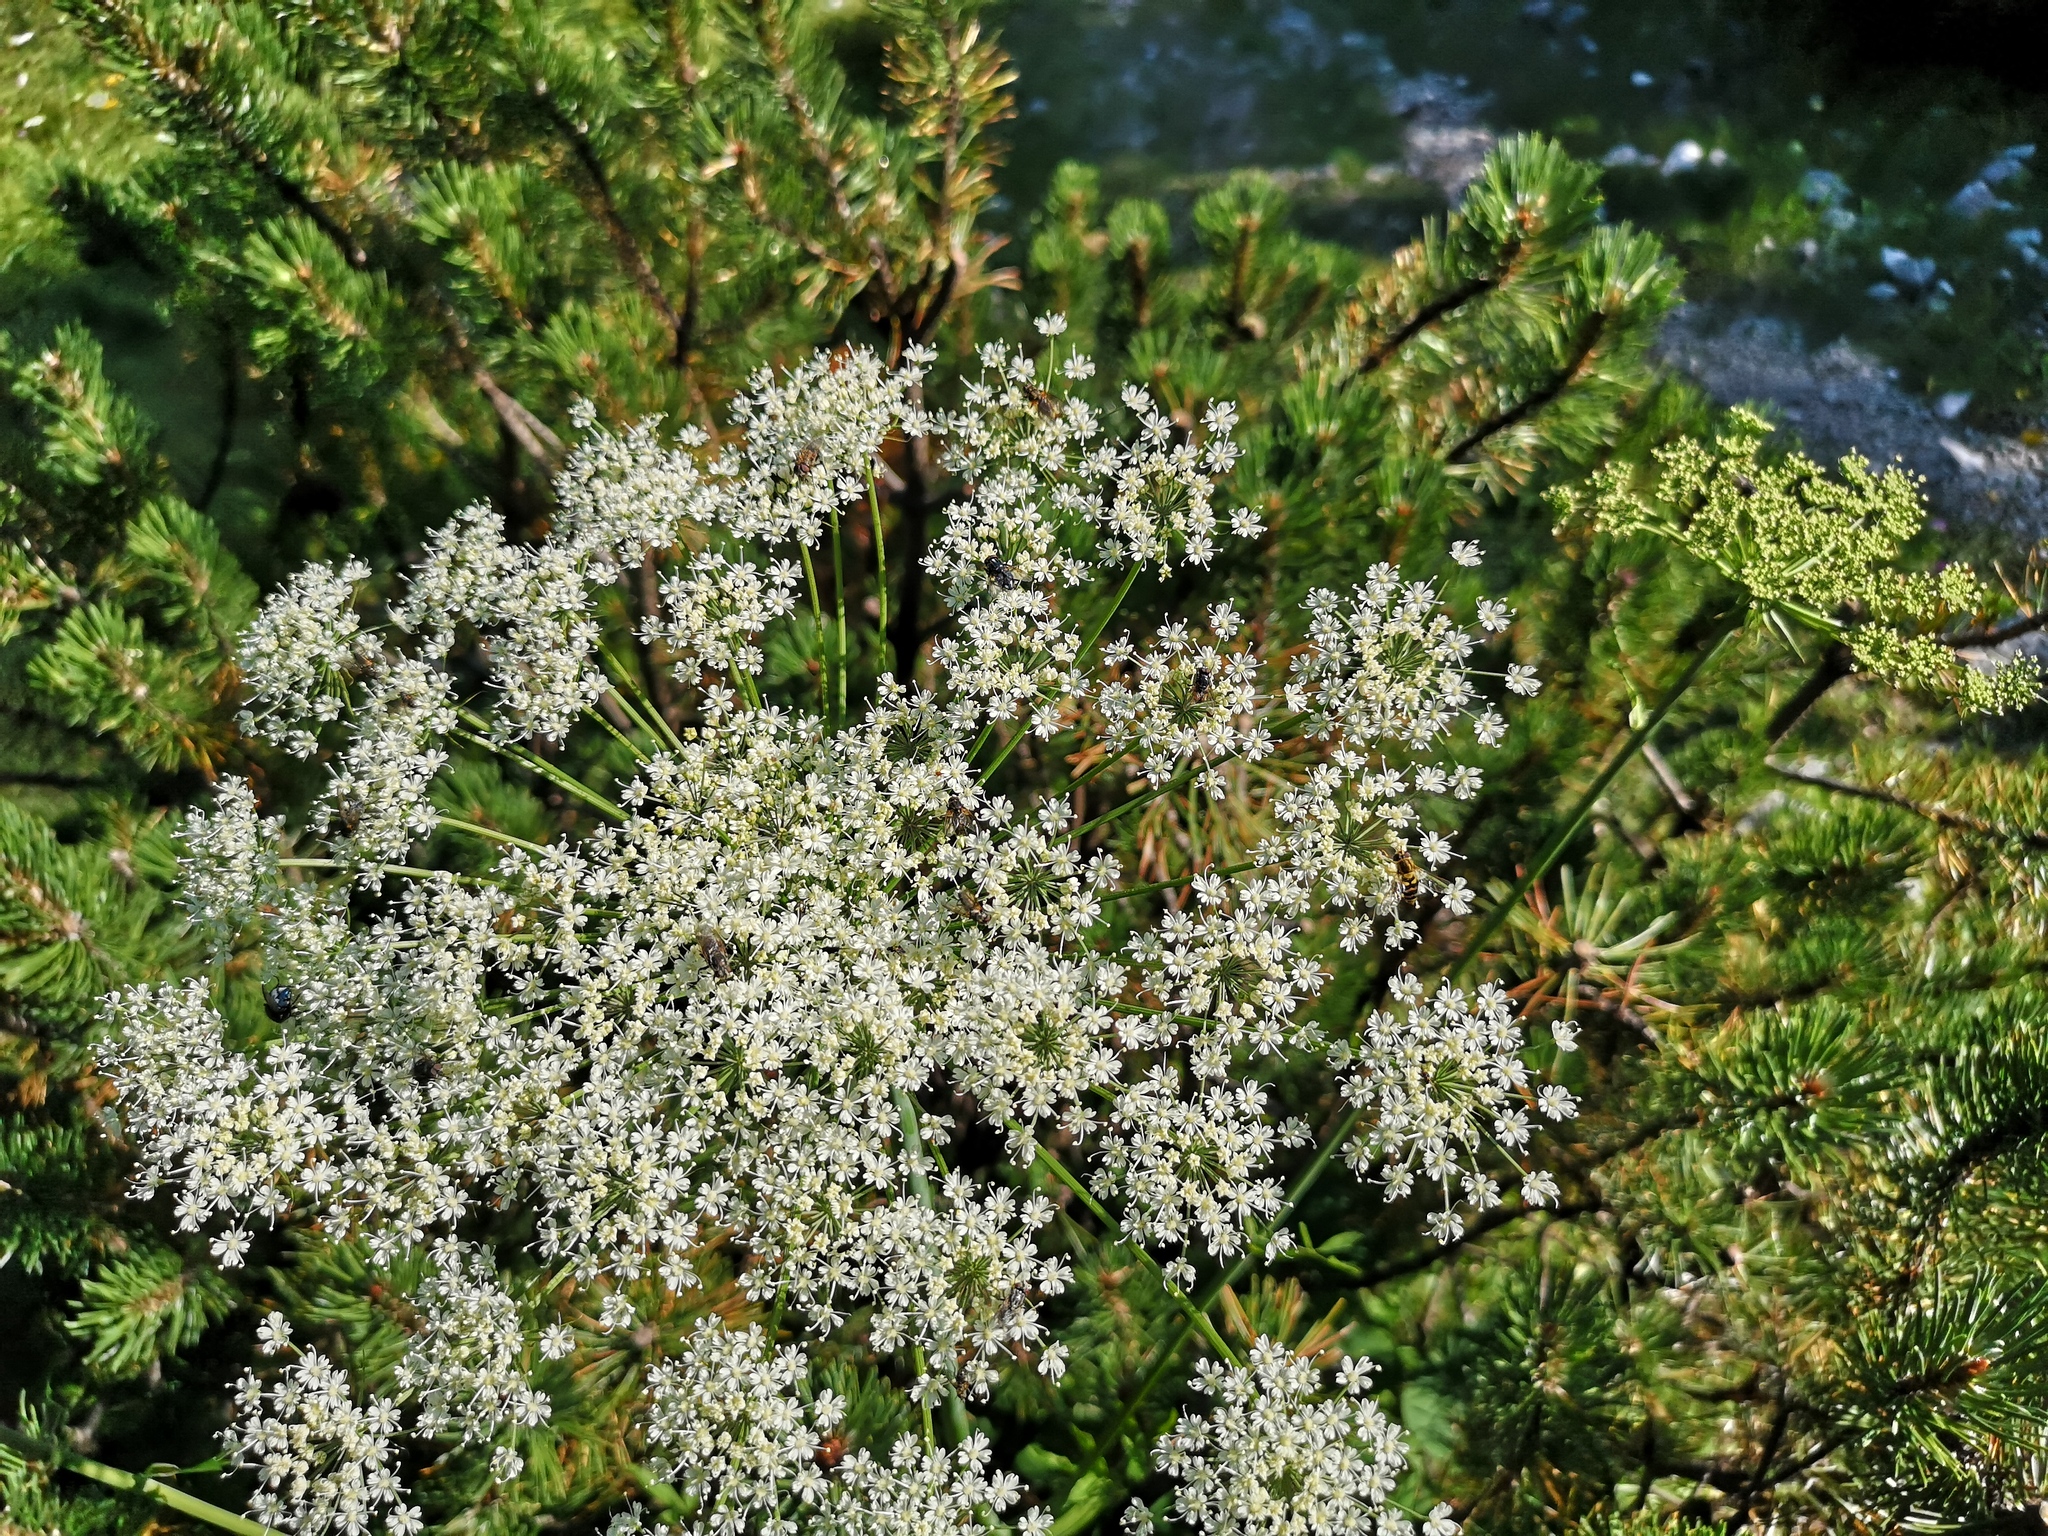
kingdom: Plantae
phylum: Tracheophyta
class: Magnoliopsida
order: Apiales
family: Apiaceae
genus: Laserpitium
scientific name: Laserpitium latifolium
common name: Broadleaf sermountain
